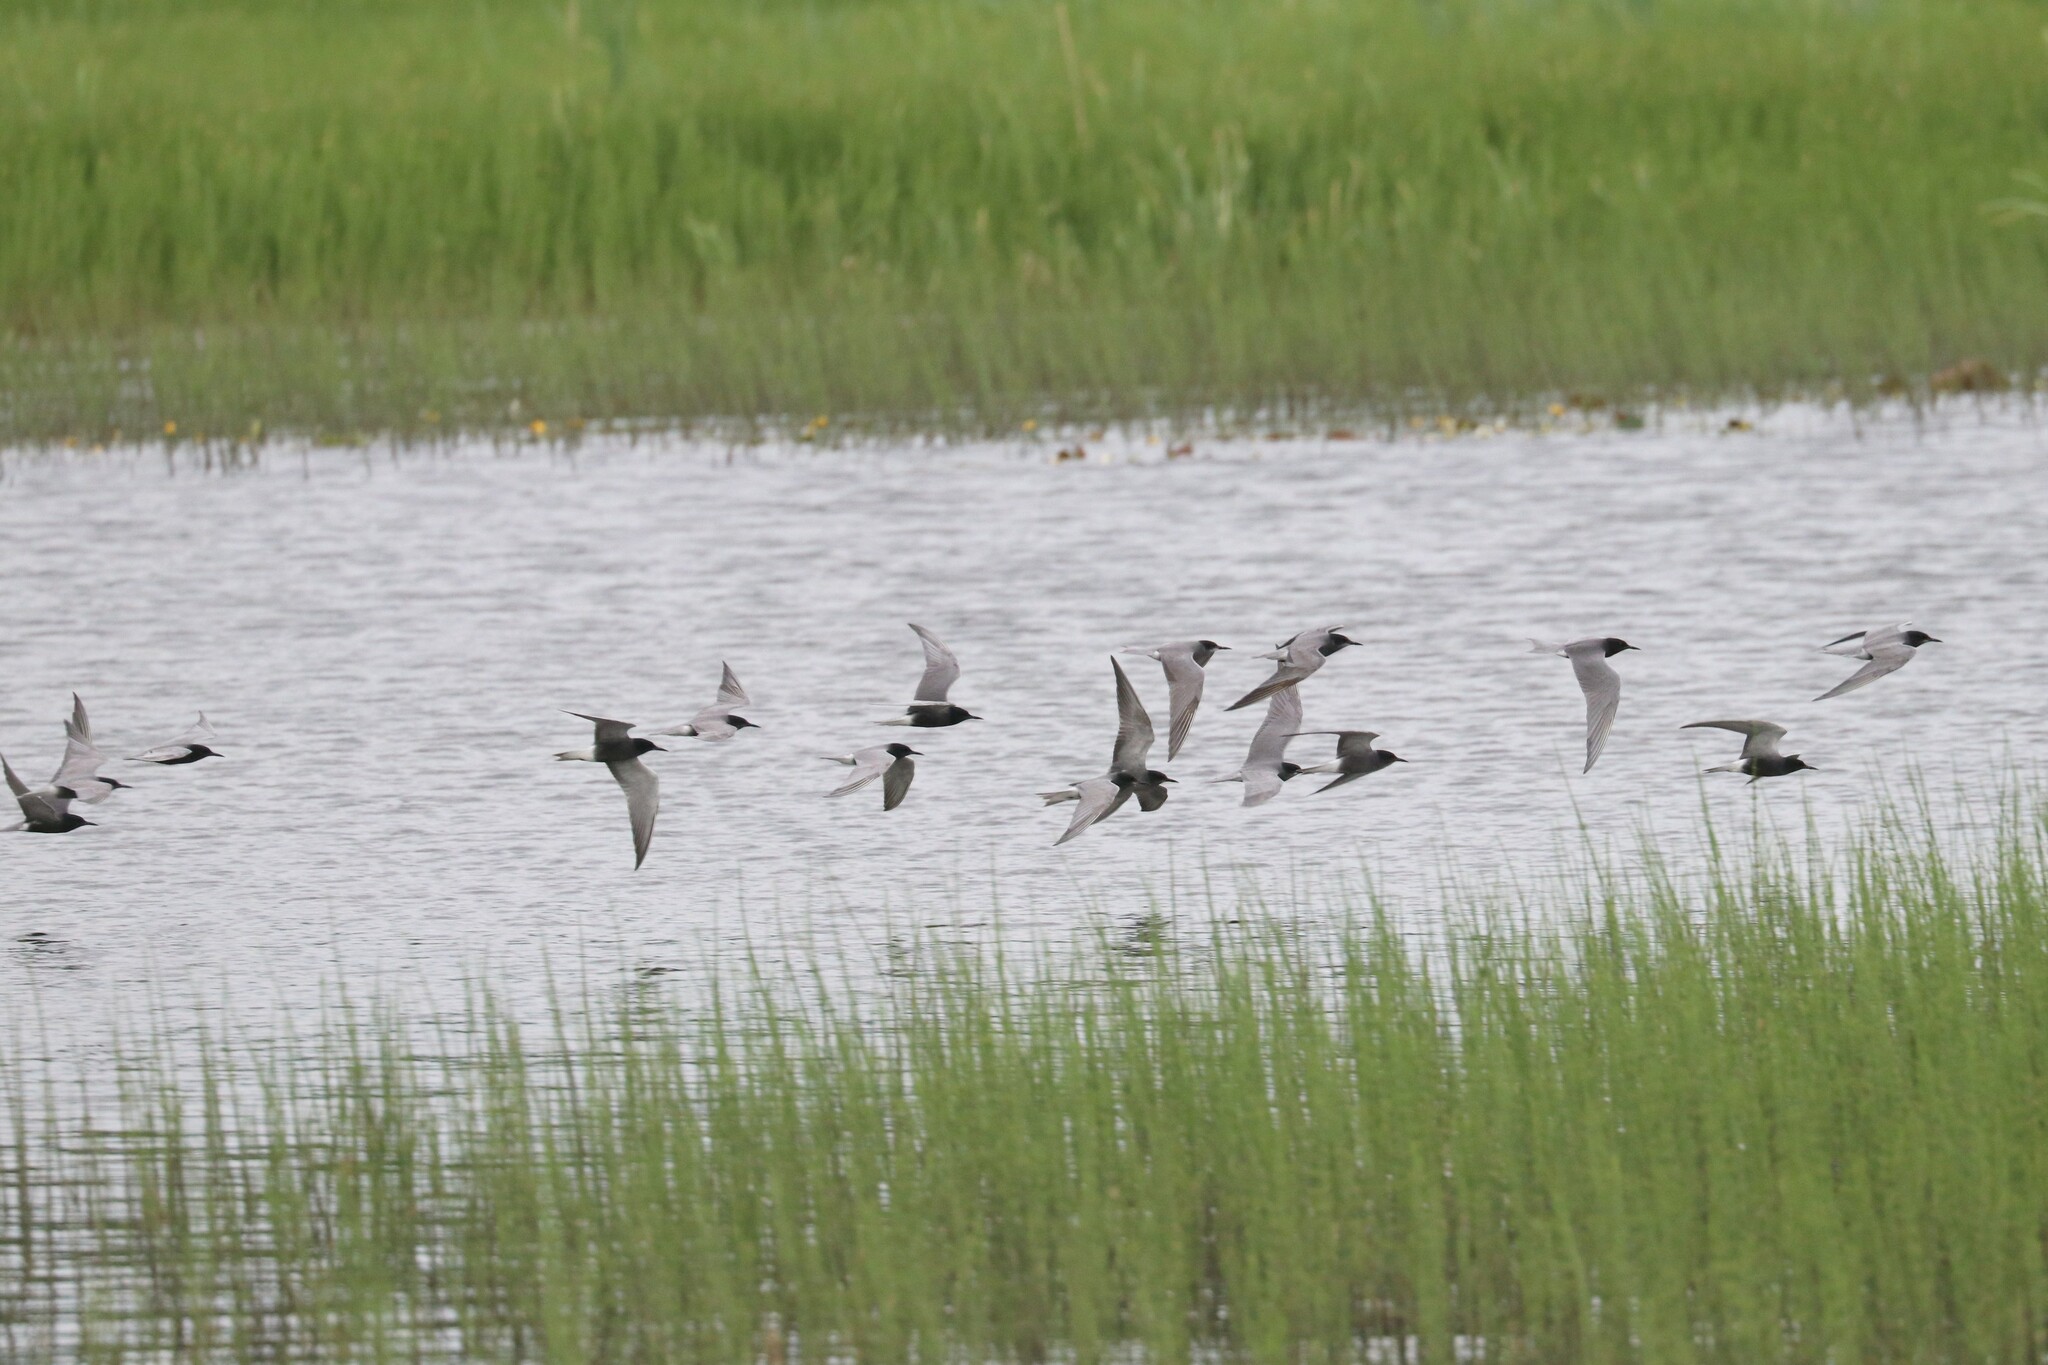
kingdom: Animalia
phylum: Chordata
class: Aves
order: Charadriiformes
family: Laridae
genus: Chlidonias
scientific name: Chlidonias niger
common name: Black tern
